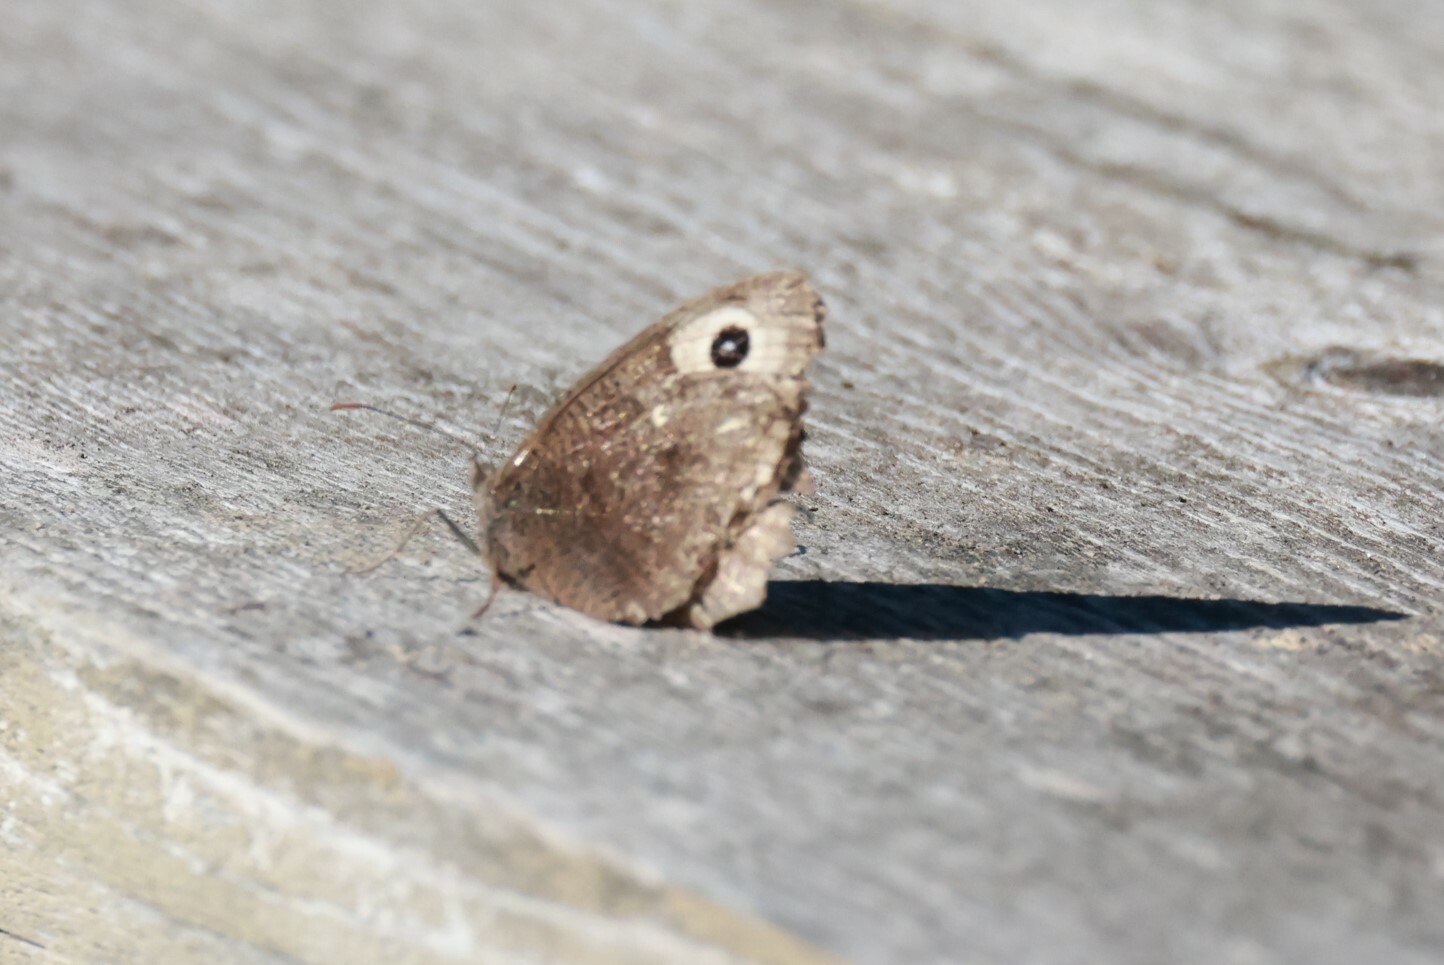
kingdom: Animalia
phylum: Arthropoda
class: Insecta
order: Lepidoptera
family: Nymphalidae
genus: Cercyonis
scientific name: Cercyonis pegala
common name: Common wood-nymph
